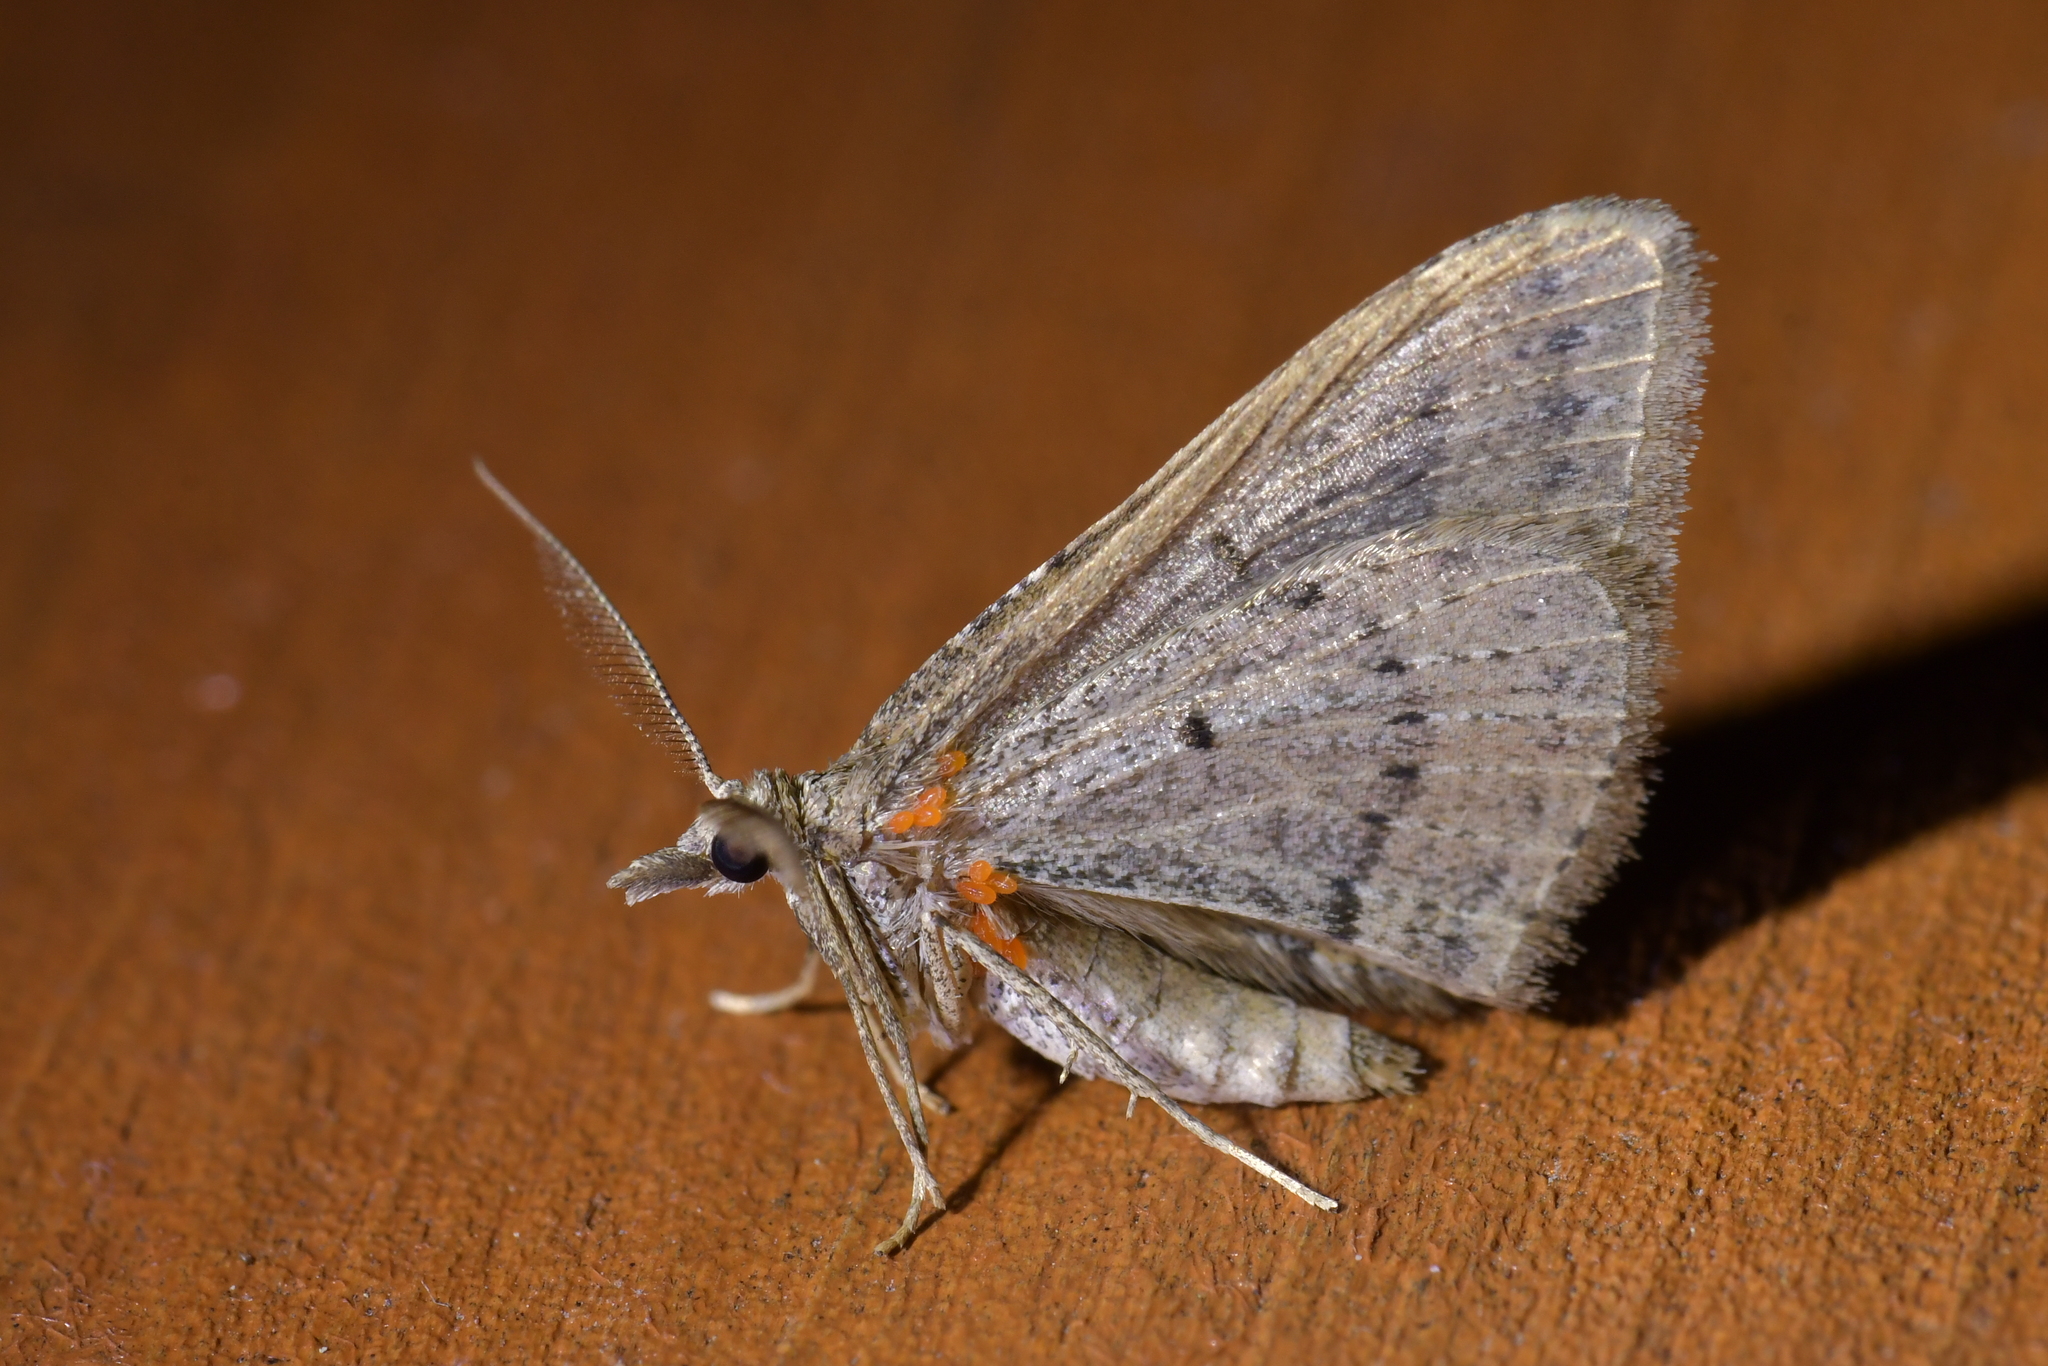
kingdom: Animalia
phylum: Arthropoda
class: Insecta
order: Lepidoptera
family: Geometridae
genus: Epyaxa
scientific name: Epyaxa rosearia
